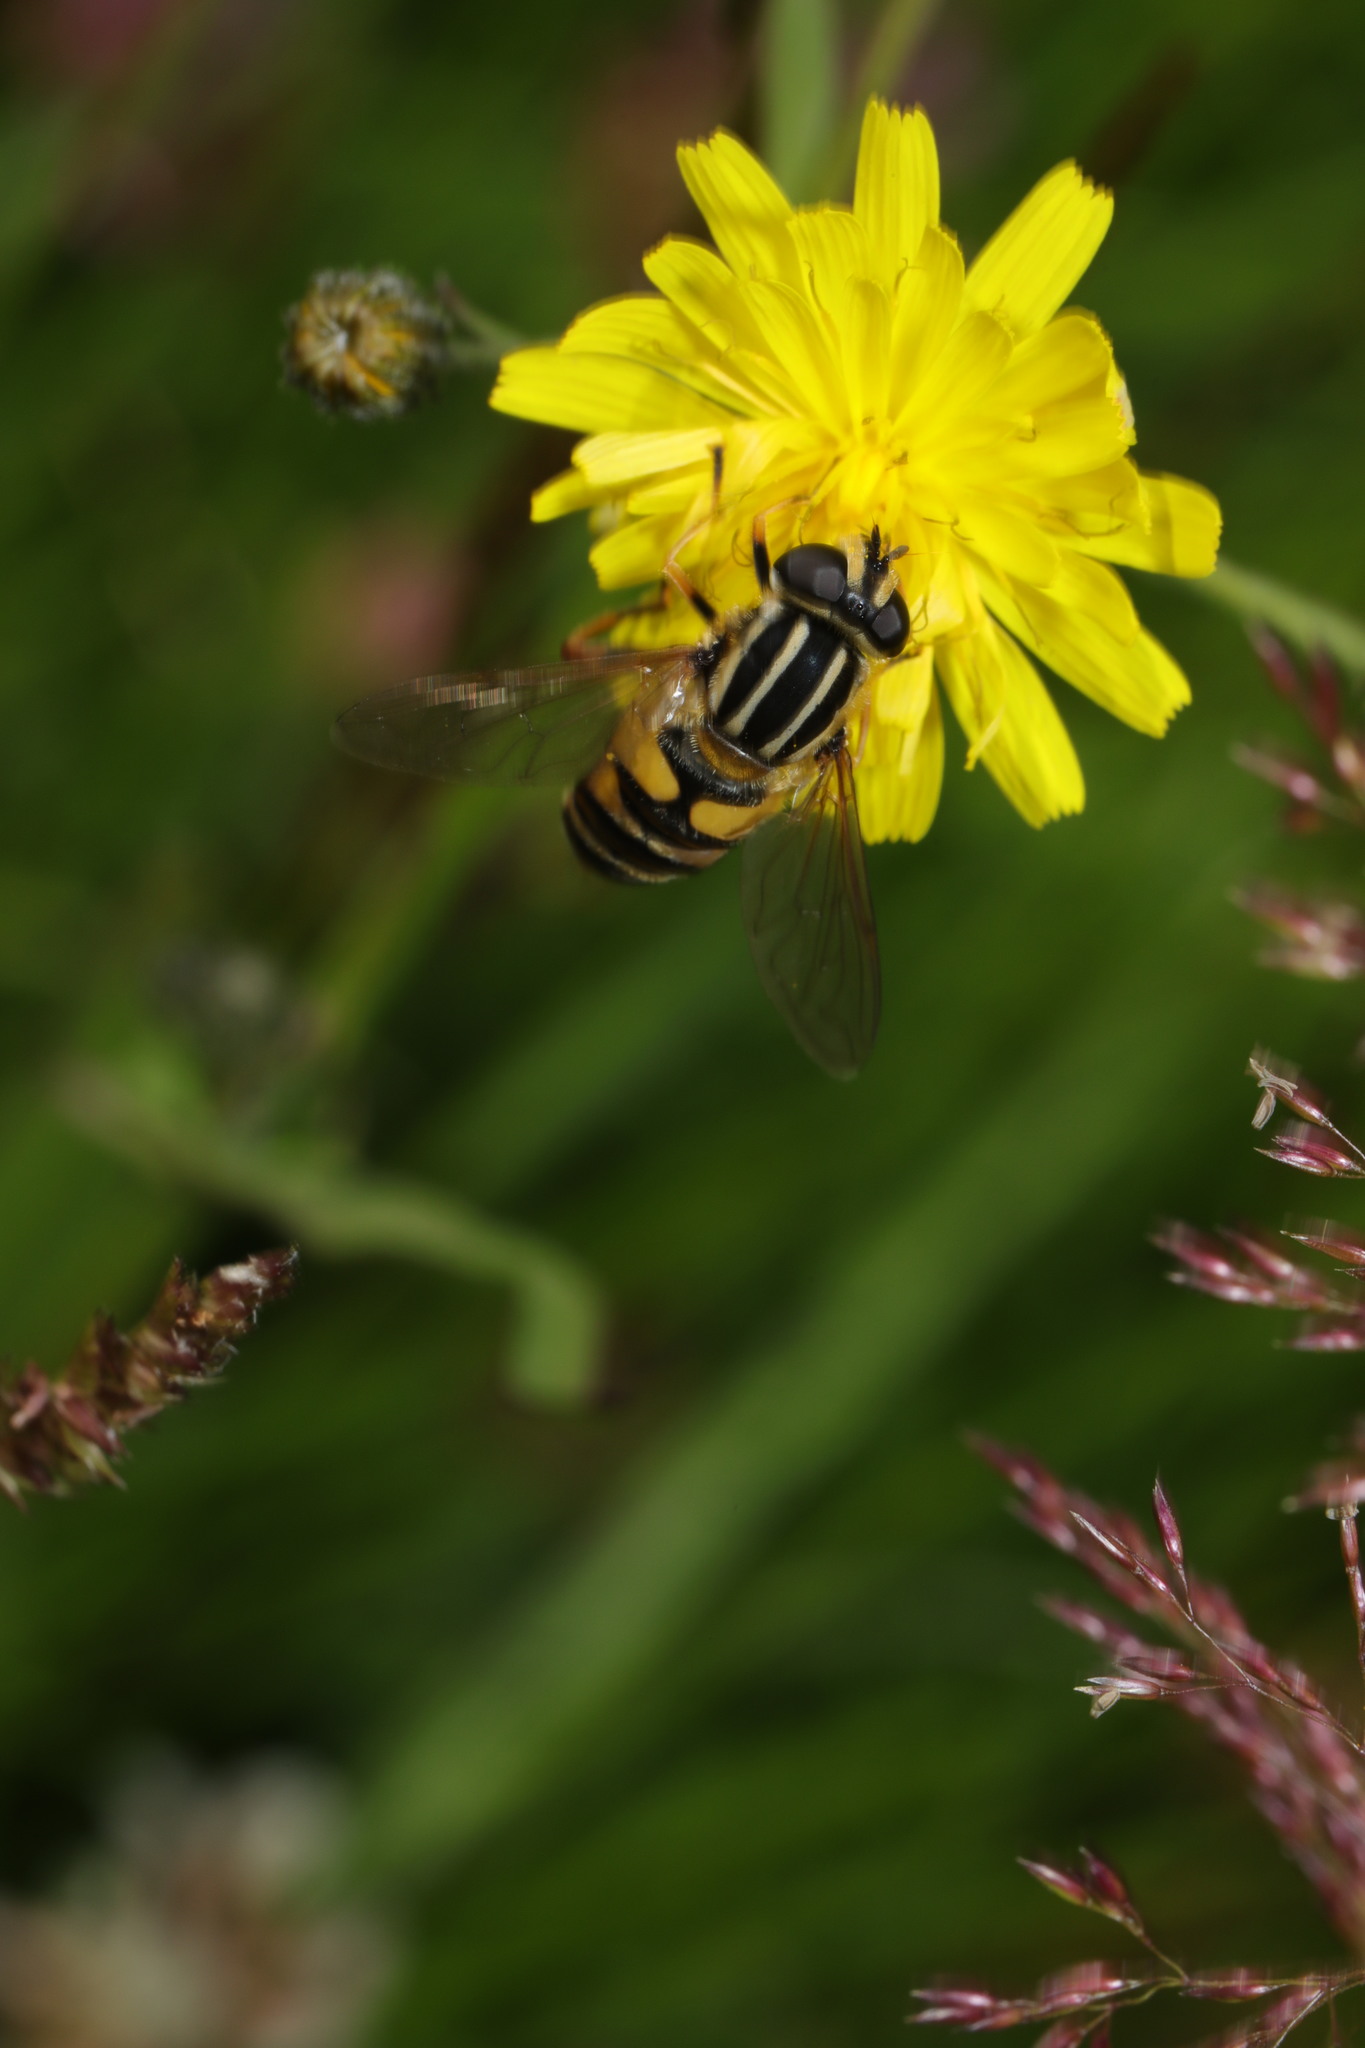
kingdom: Animalia
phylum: Arthropoda
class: Insecta
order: Diptera
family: Syrphidae
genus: Helophilus
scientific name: Helophilus pendulus
